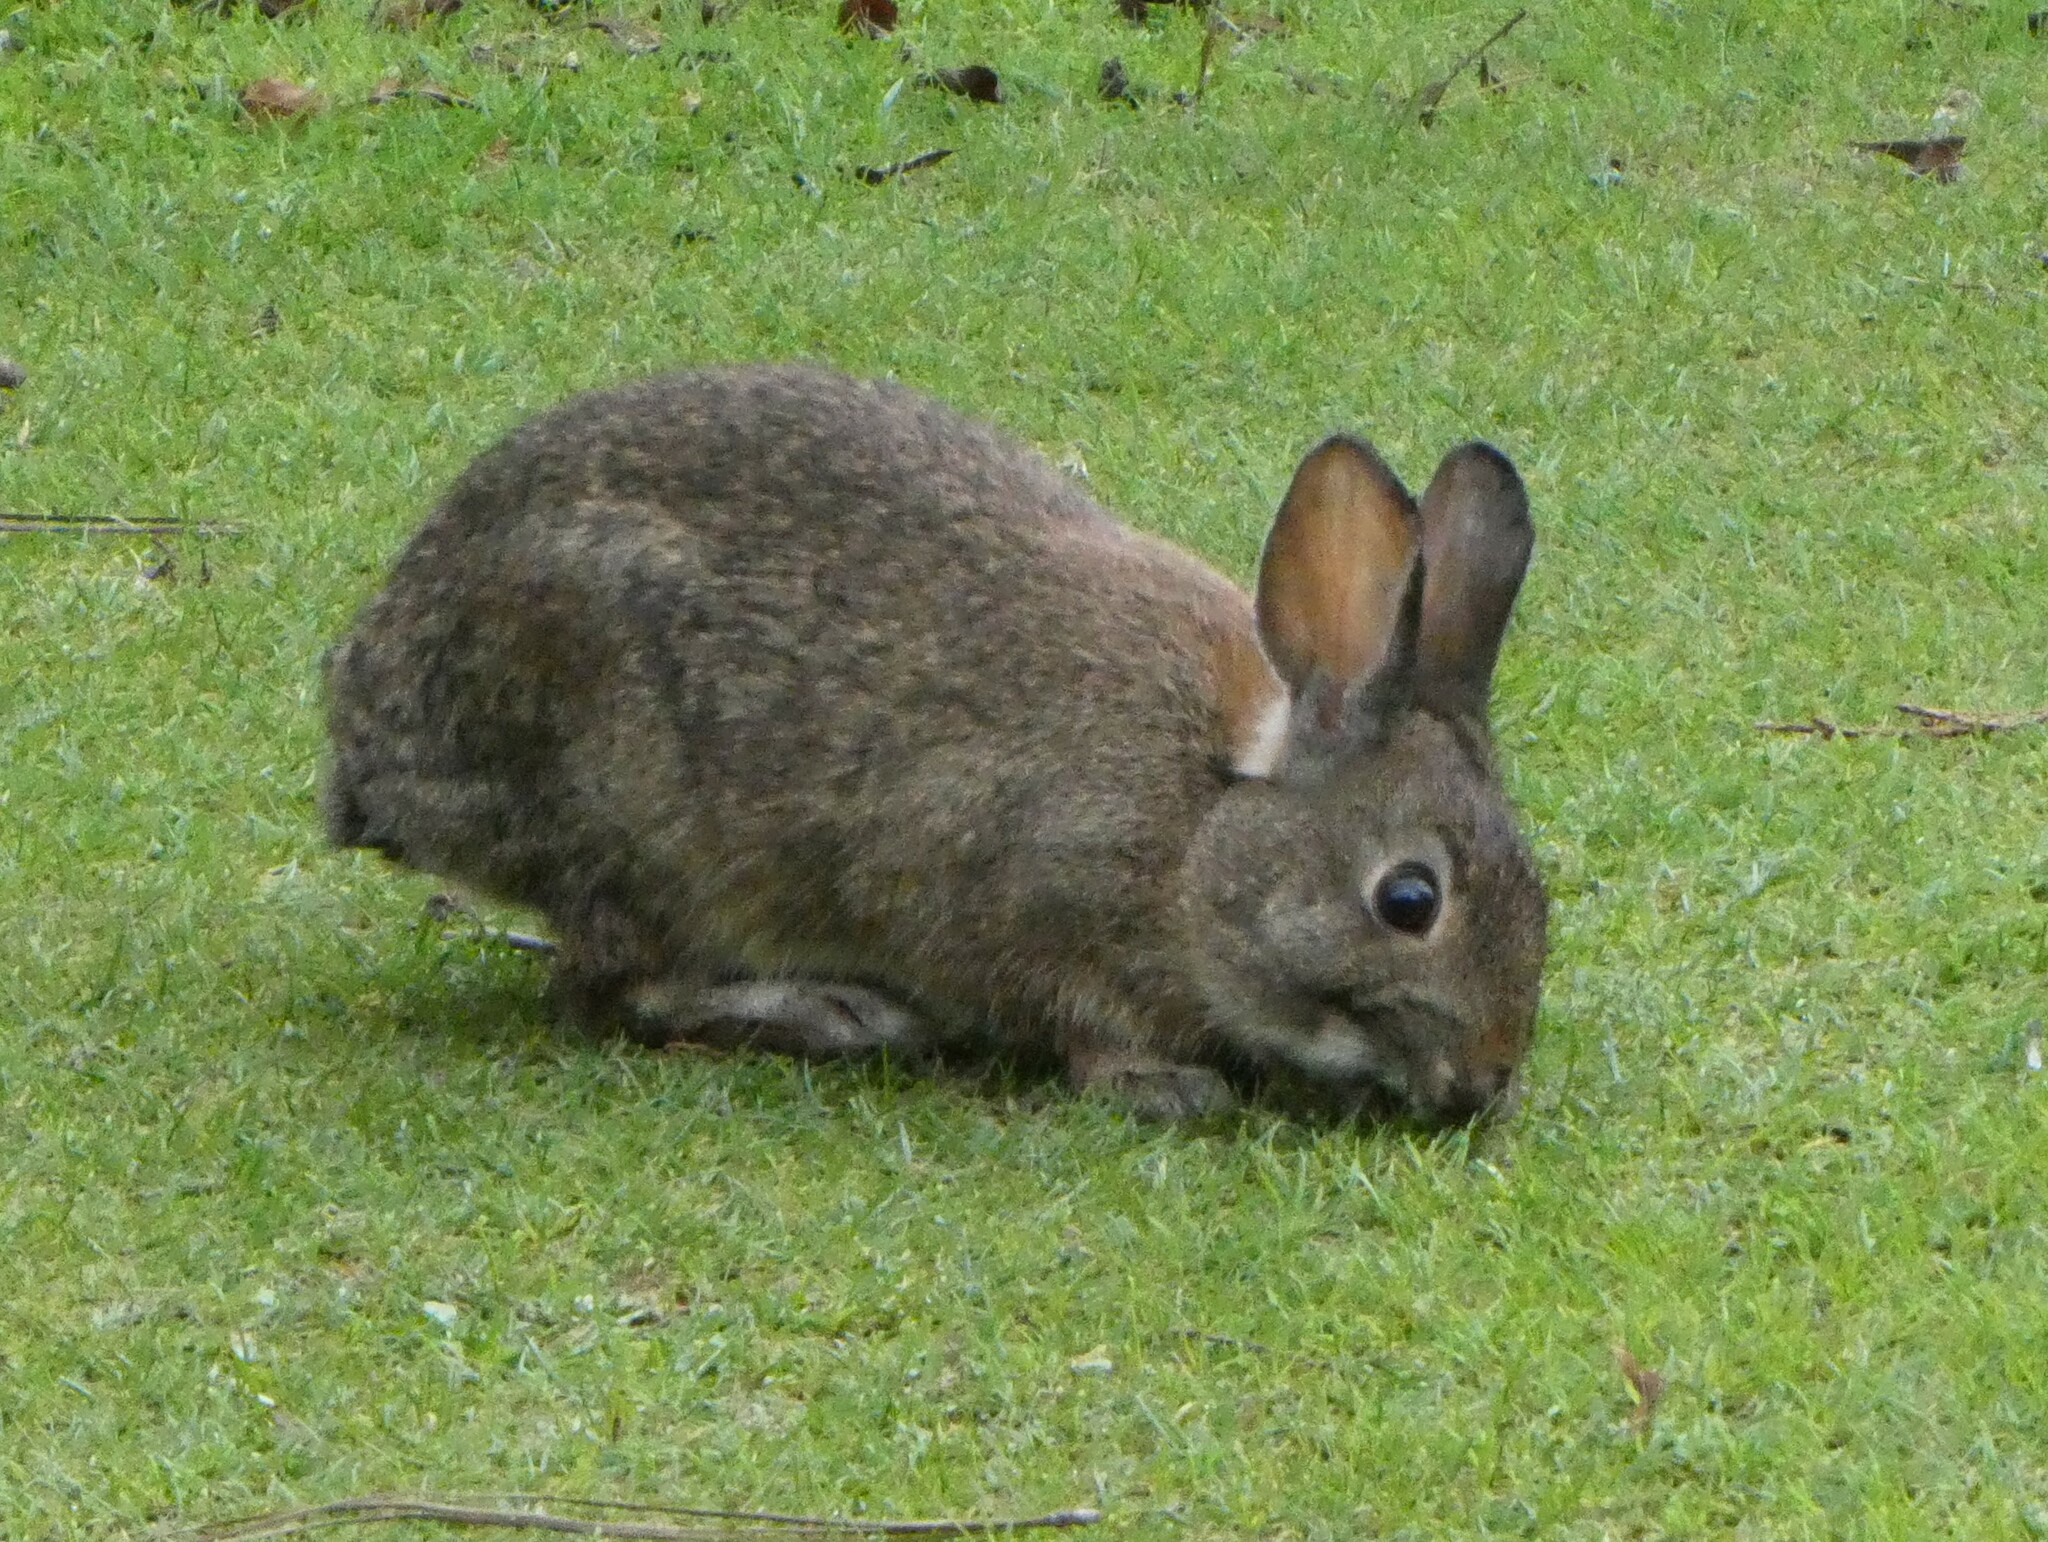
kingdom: Animalia
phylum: Chordata
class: Mammalia
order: Lagomorpha
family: Leporidae
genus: Sylvilagus
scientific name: Sylvilagus bachmani
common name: Brush rabbit
